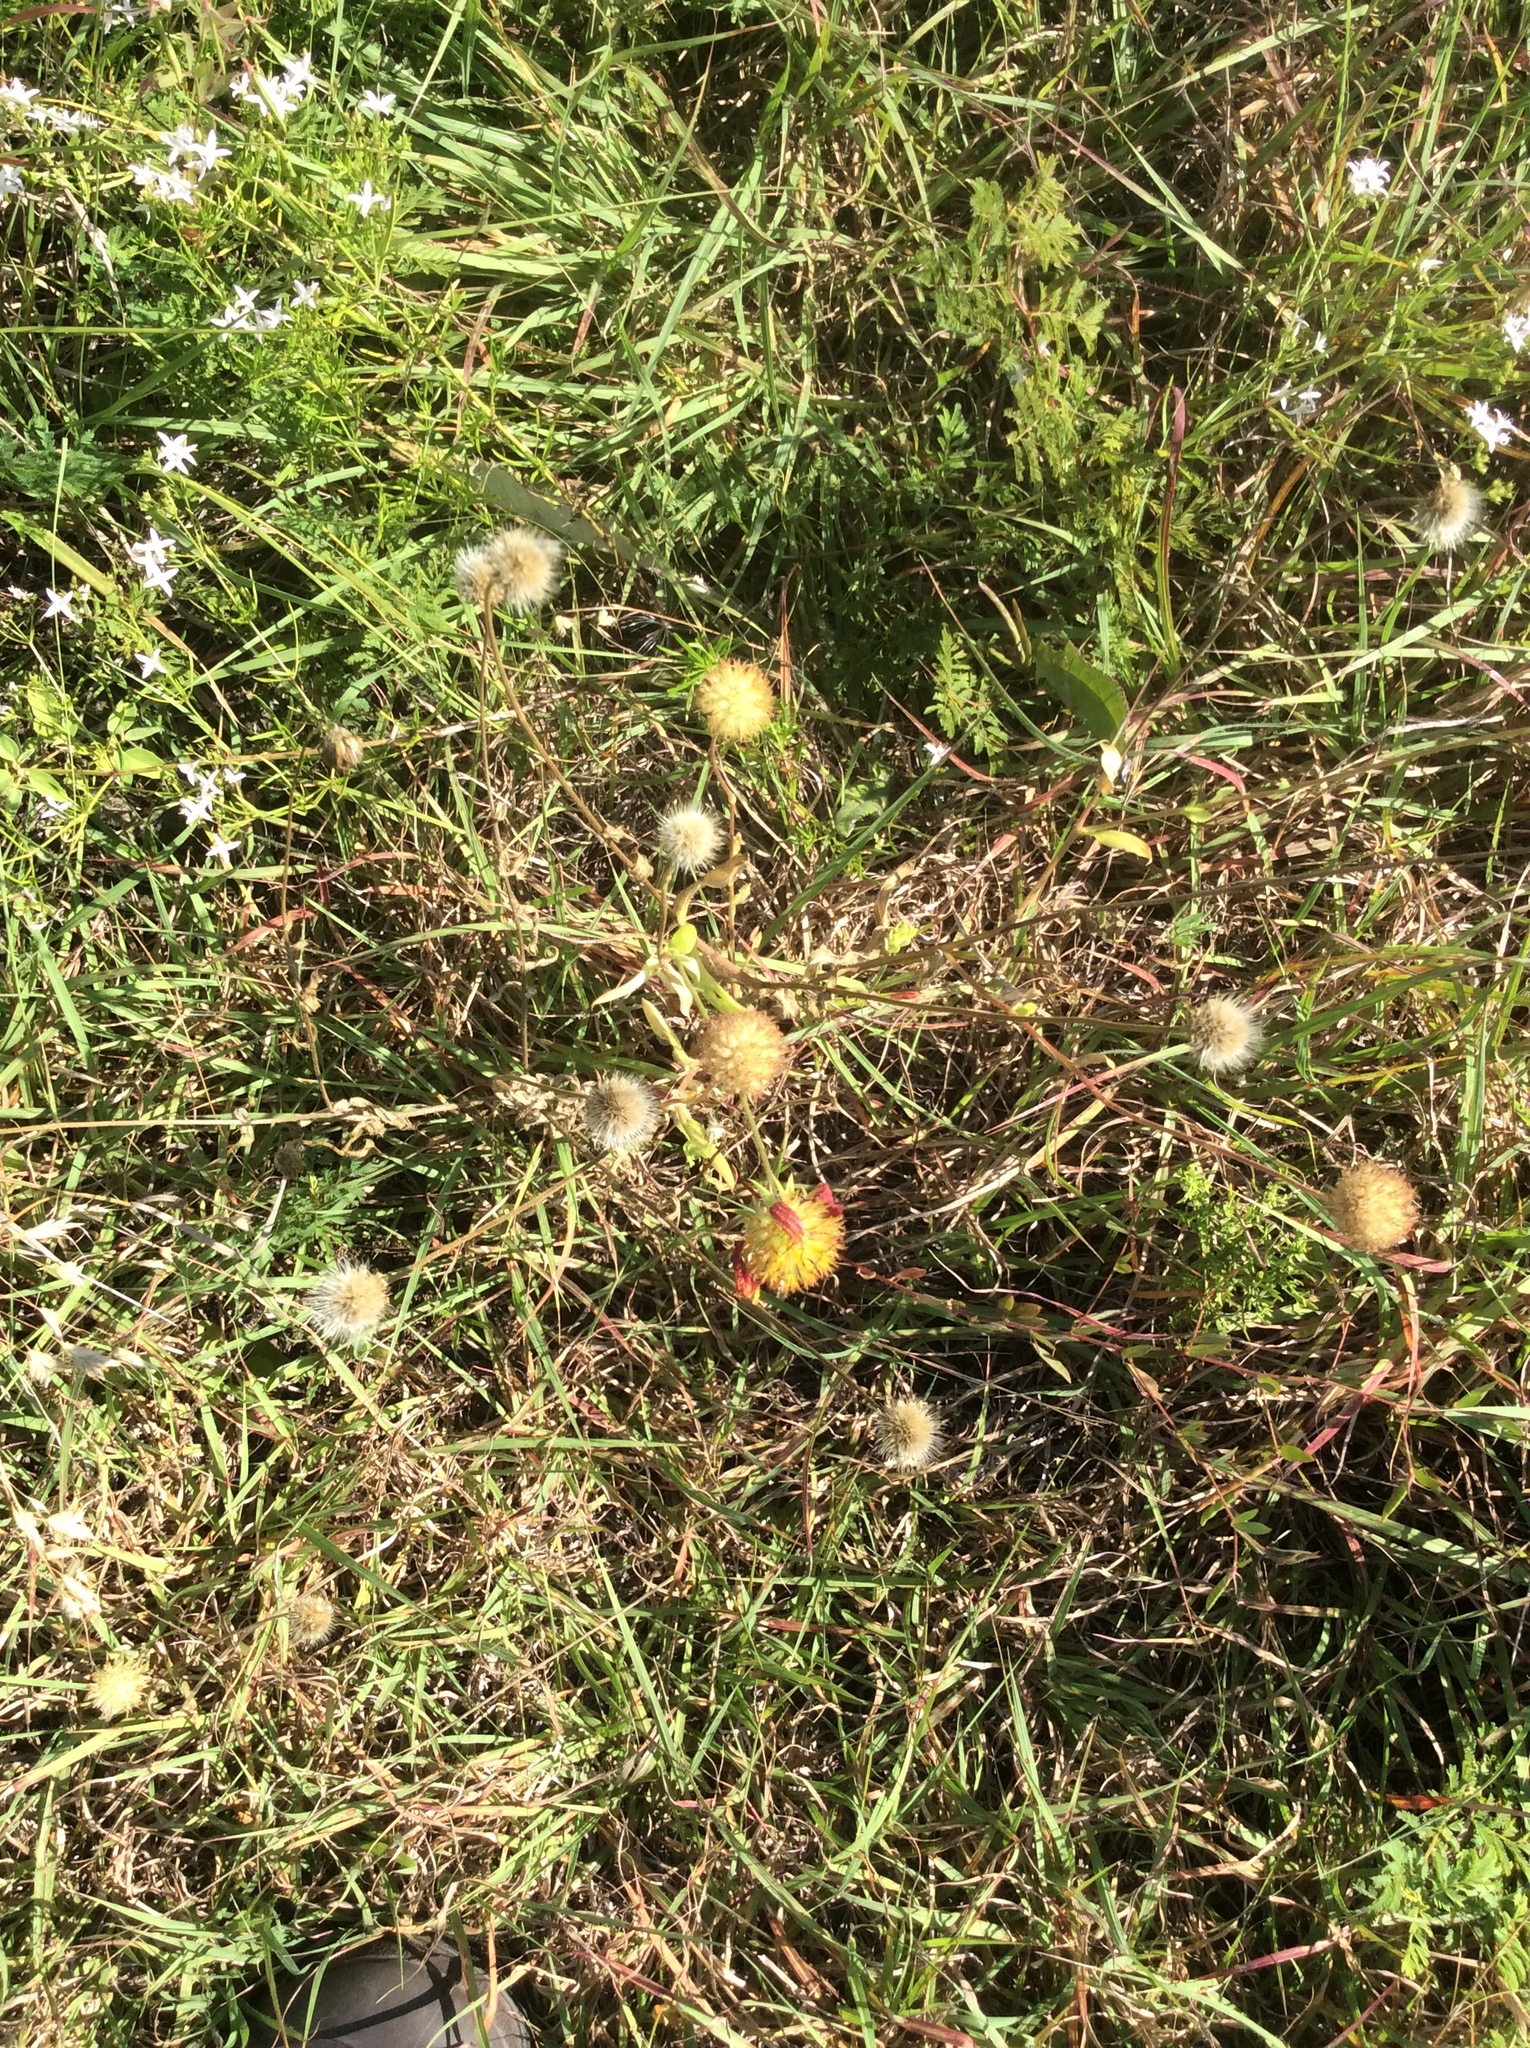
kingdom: Plantae
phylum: Tracheophyta
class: Magnoliopsida
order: Asterales
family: Asteraceae
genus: Gaillardia
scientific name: Gaillardia pulchella
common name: Firewheel
